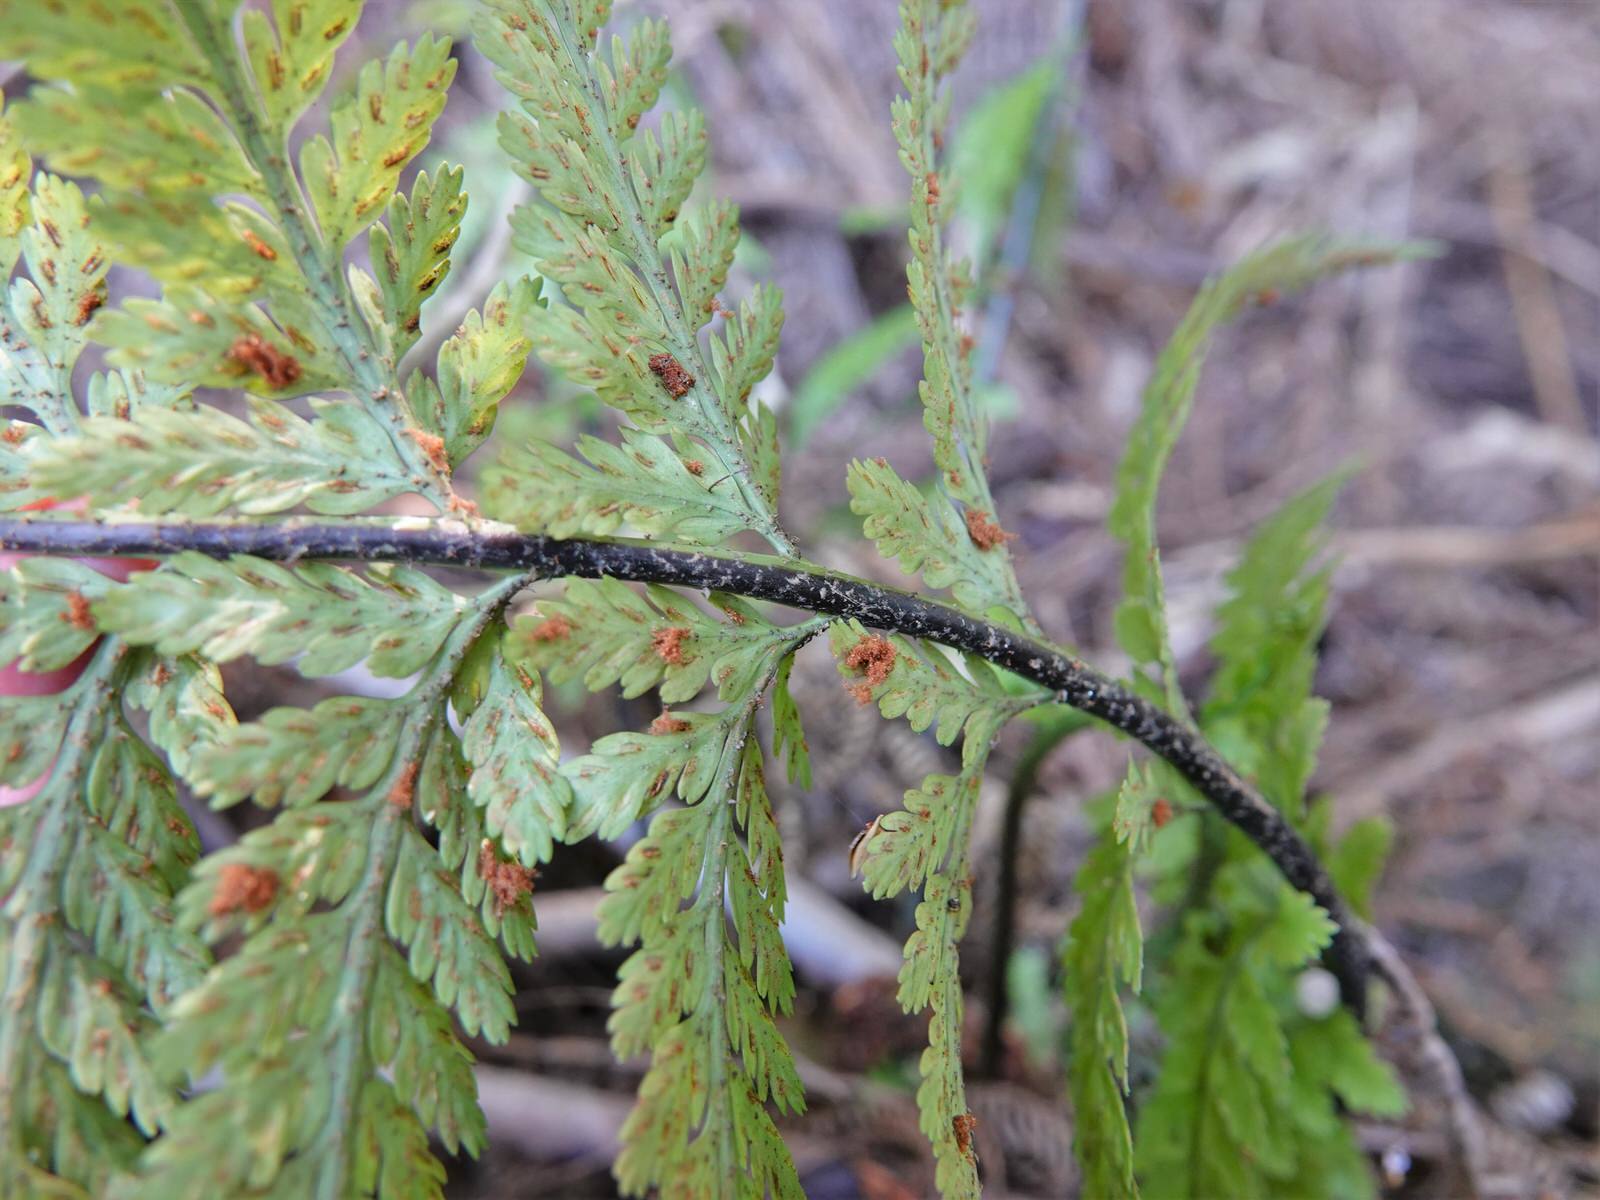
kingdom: Plantae
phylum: Tracheophyta
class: Polypodiopsida
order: Polypodiales
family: Aspleniaceae
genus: Asplenium
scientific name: Asplenium bulbiferum
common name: Mother fern
